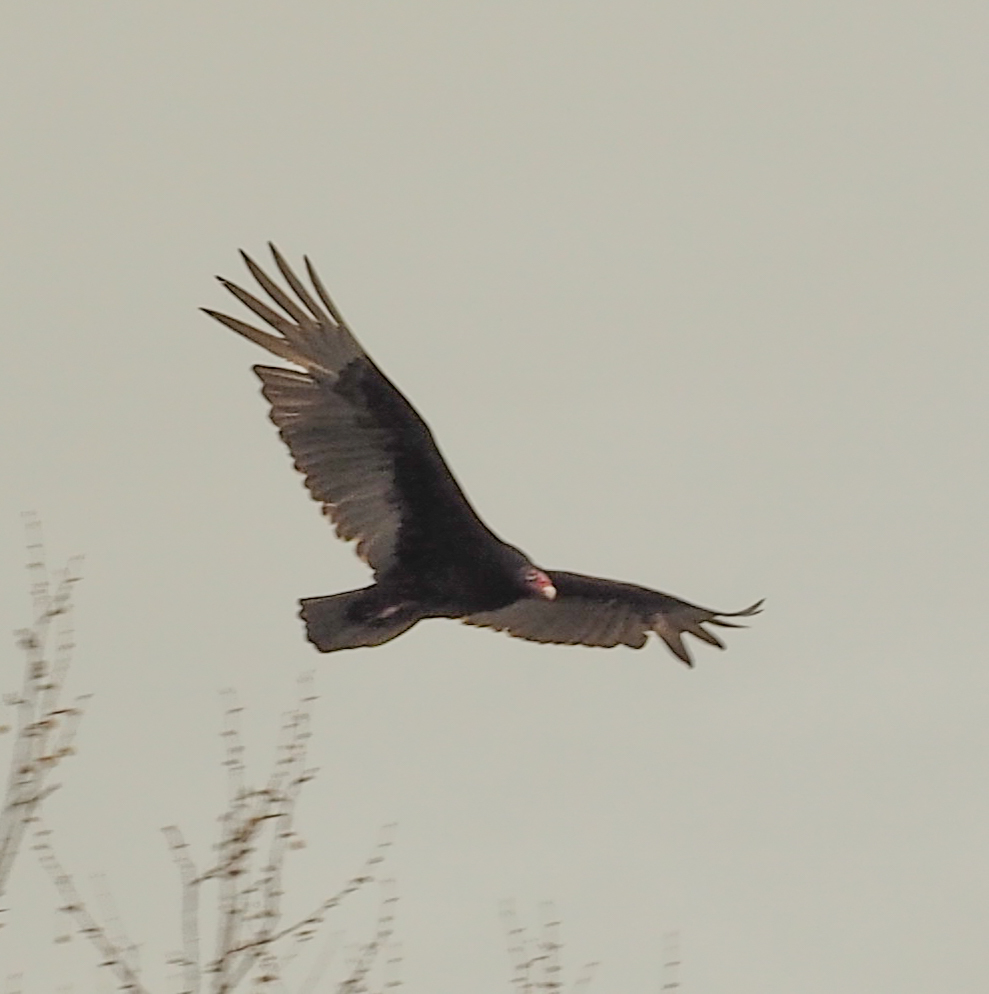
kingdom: Animalia
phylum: Chordata
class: Aves
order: Accipitriformes
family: Cathartidae
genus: Cathartes
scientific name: Cathartes aura
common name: Turkey vulture
